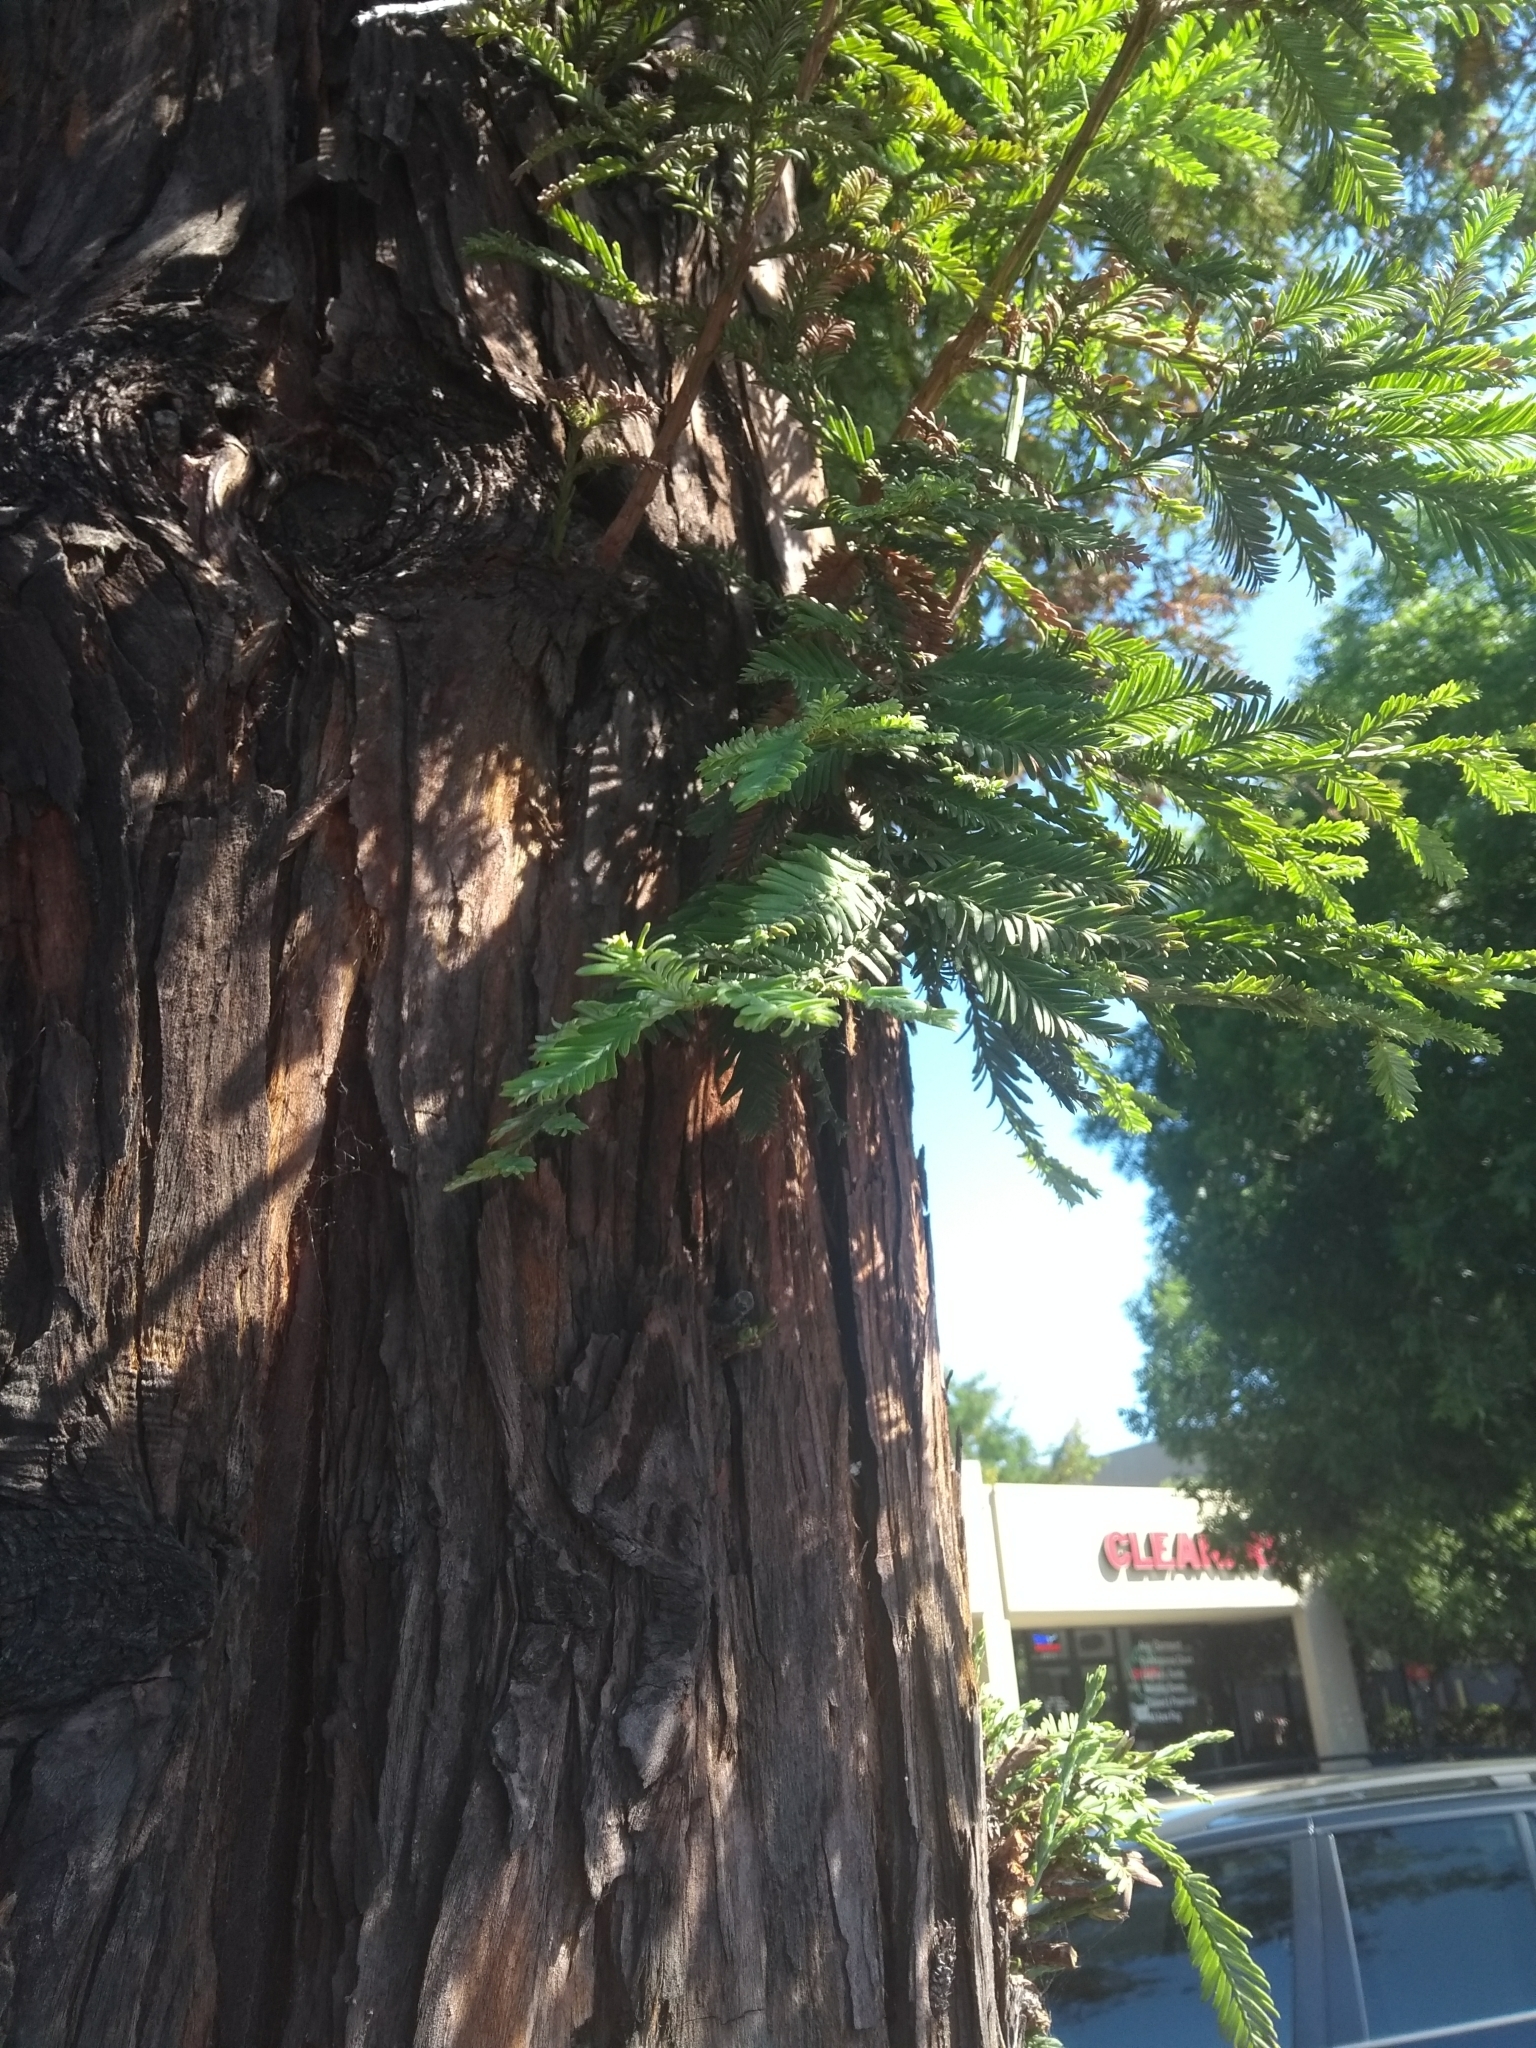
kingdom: Plantae
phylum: Tracheophyta
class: Pinopsida
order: Pinales
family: Cupressaceae
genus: Sequoia
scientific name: Sequoia sempervirens
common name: Coast redwood
